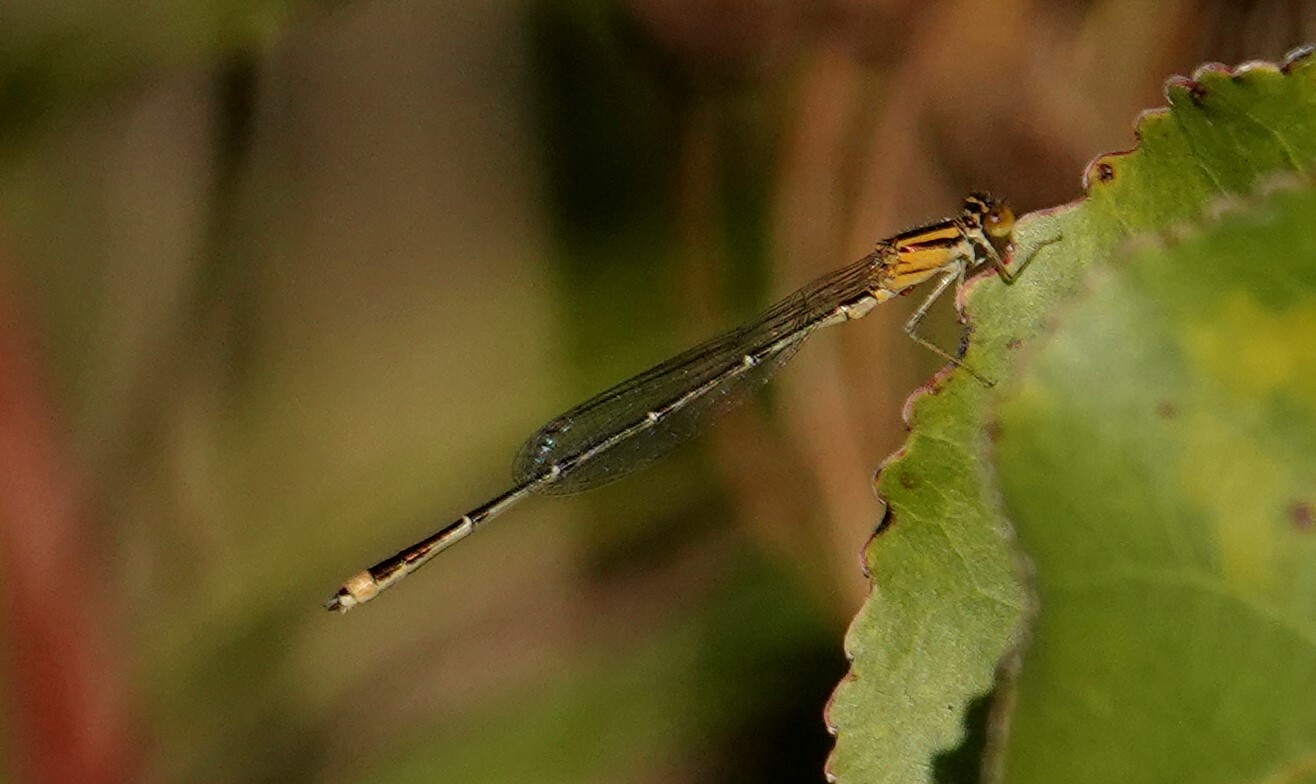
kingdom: Animalia
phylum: Arthropoda
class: Insecta
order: Odonata
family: Coenagrionidae
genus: Enallagma
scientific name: Enallagma signatum
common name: Orange bluet
